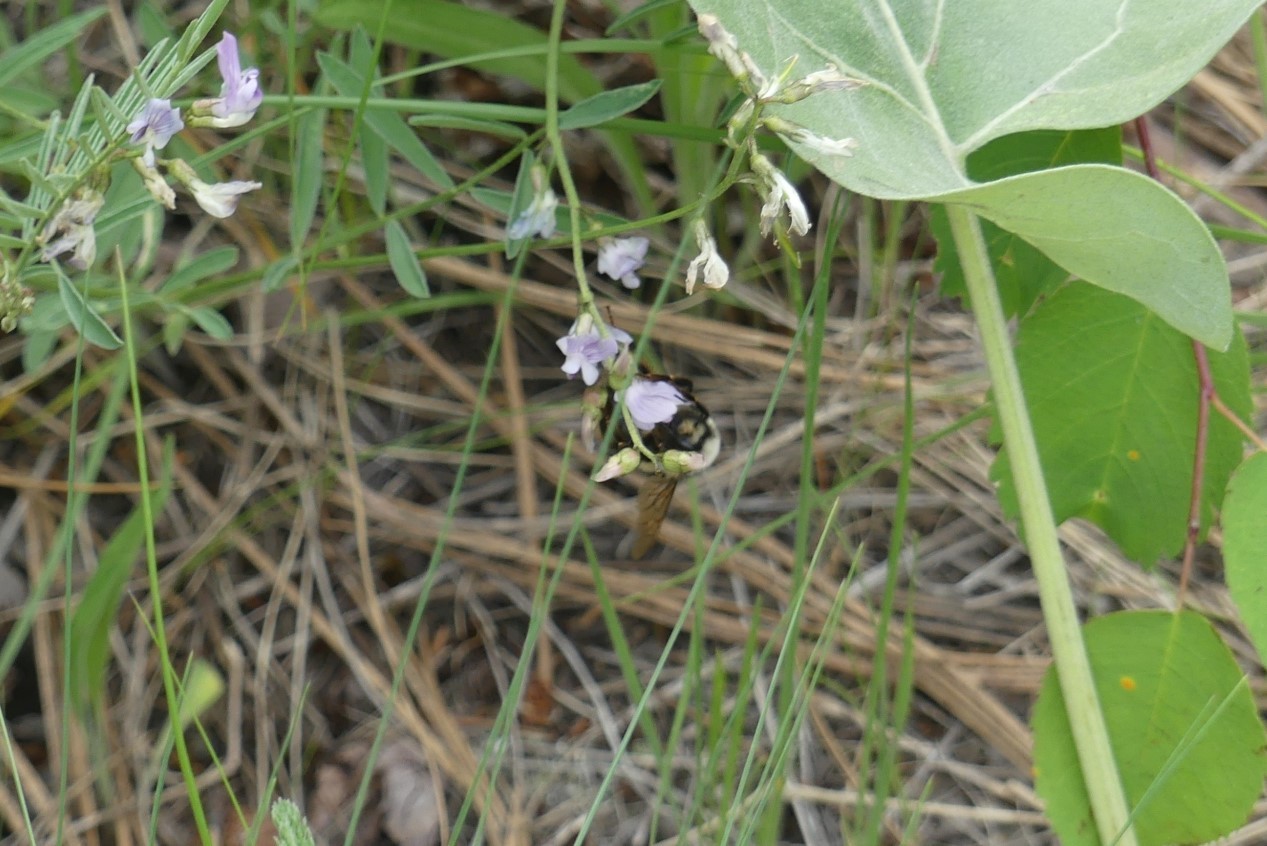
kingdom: Animalia
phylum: Arthropoda
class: Insecta
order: Hymenoptera
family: Apidae
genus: Bombus
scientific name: Bombus vancouverensis
